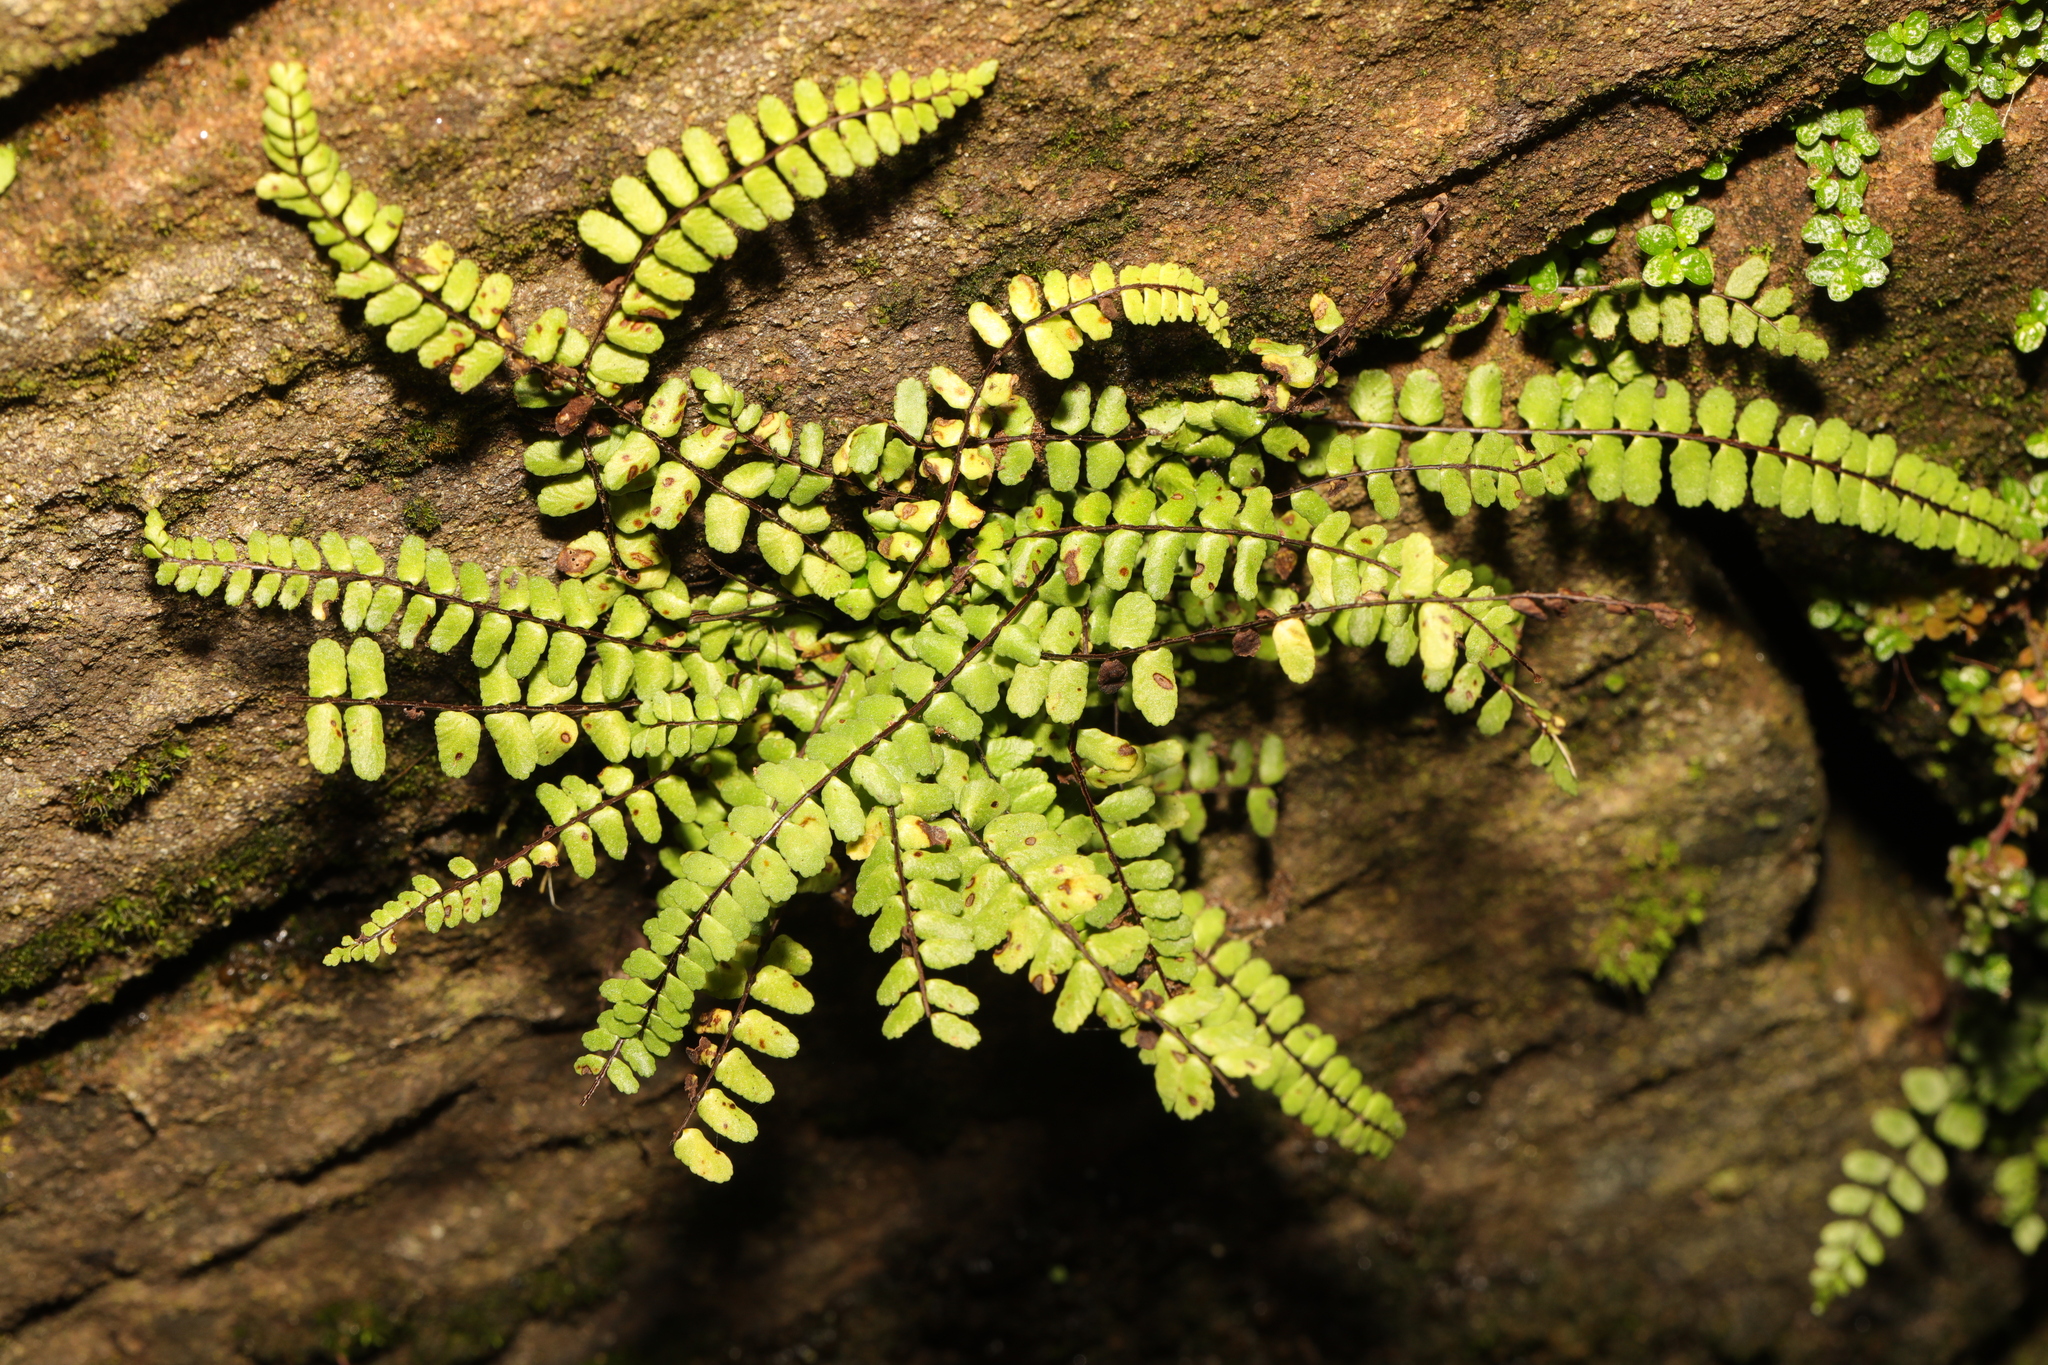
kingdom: Plantae
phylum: Tracheophyta
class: Polypodiopsida
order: Polypodiales
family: Aspleniaceae
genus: Asplenium
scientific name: Asplenium trichomanes
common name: Maidenhair spleenwort
